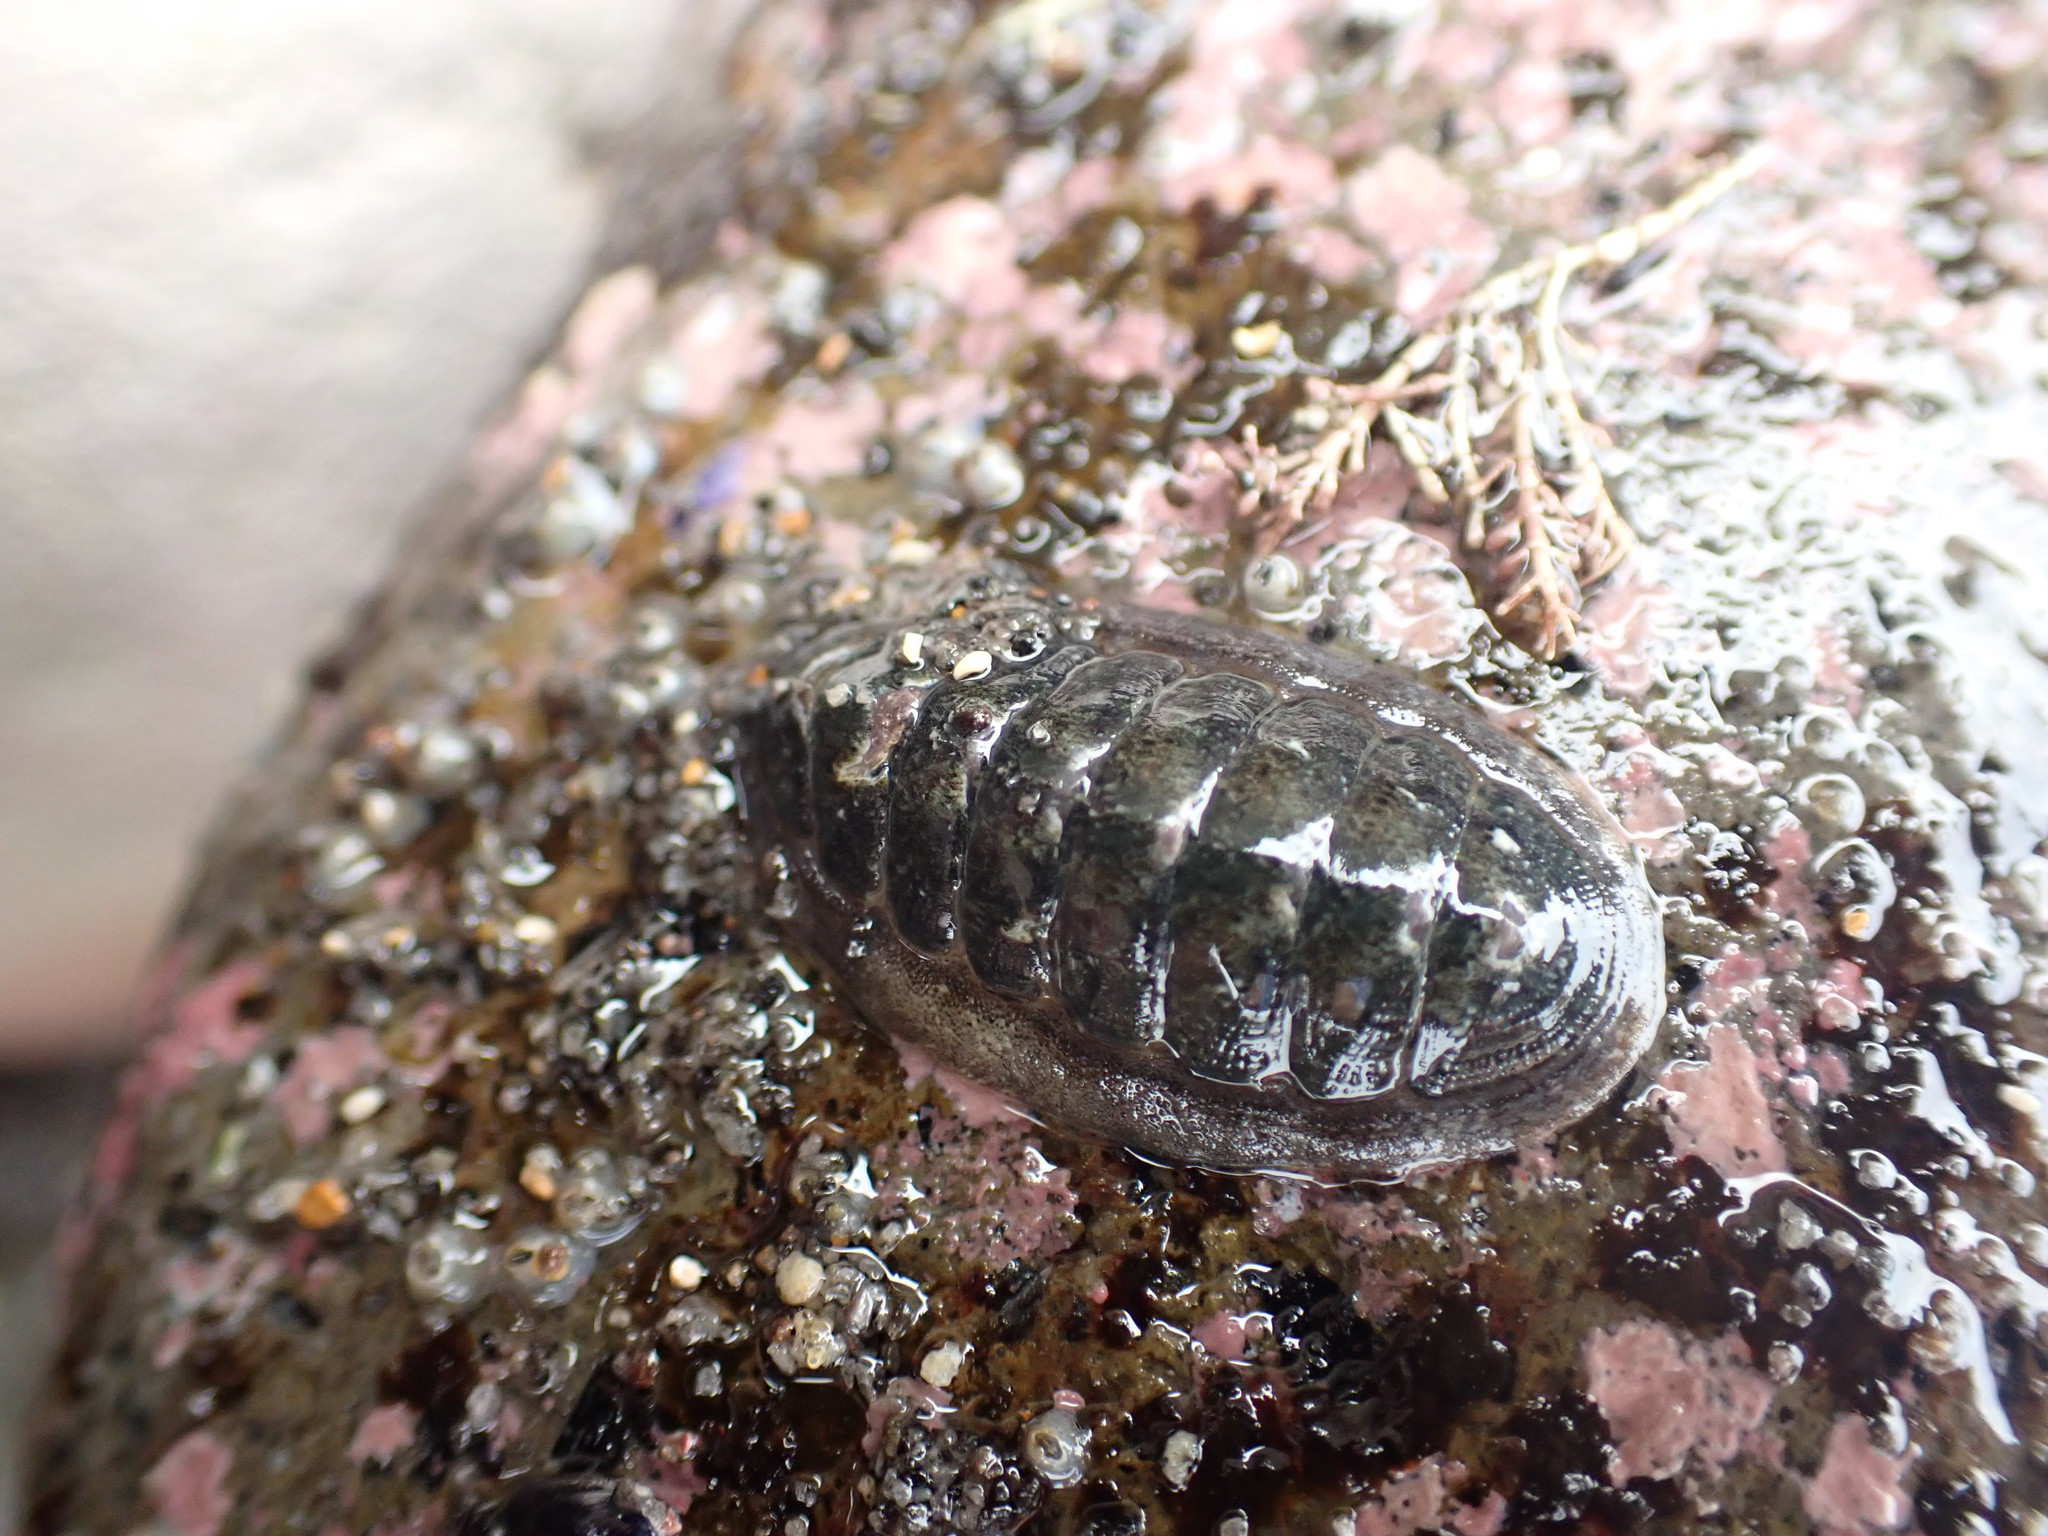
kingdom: Animalia
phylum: Mollusca
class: Polyplacophora
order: Chitonida
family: Ischnochitonidae
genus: Ischnochiton
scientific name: Ischnochiton maorianus
